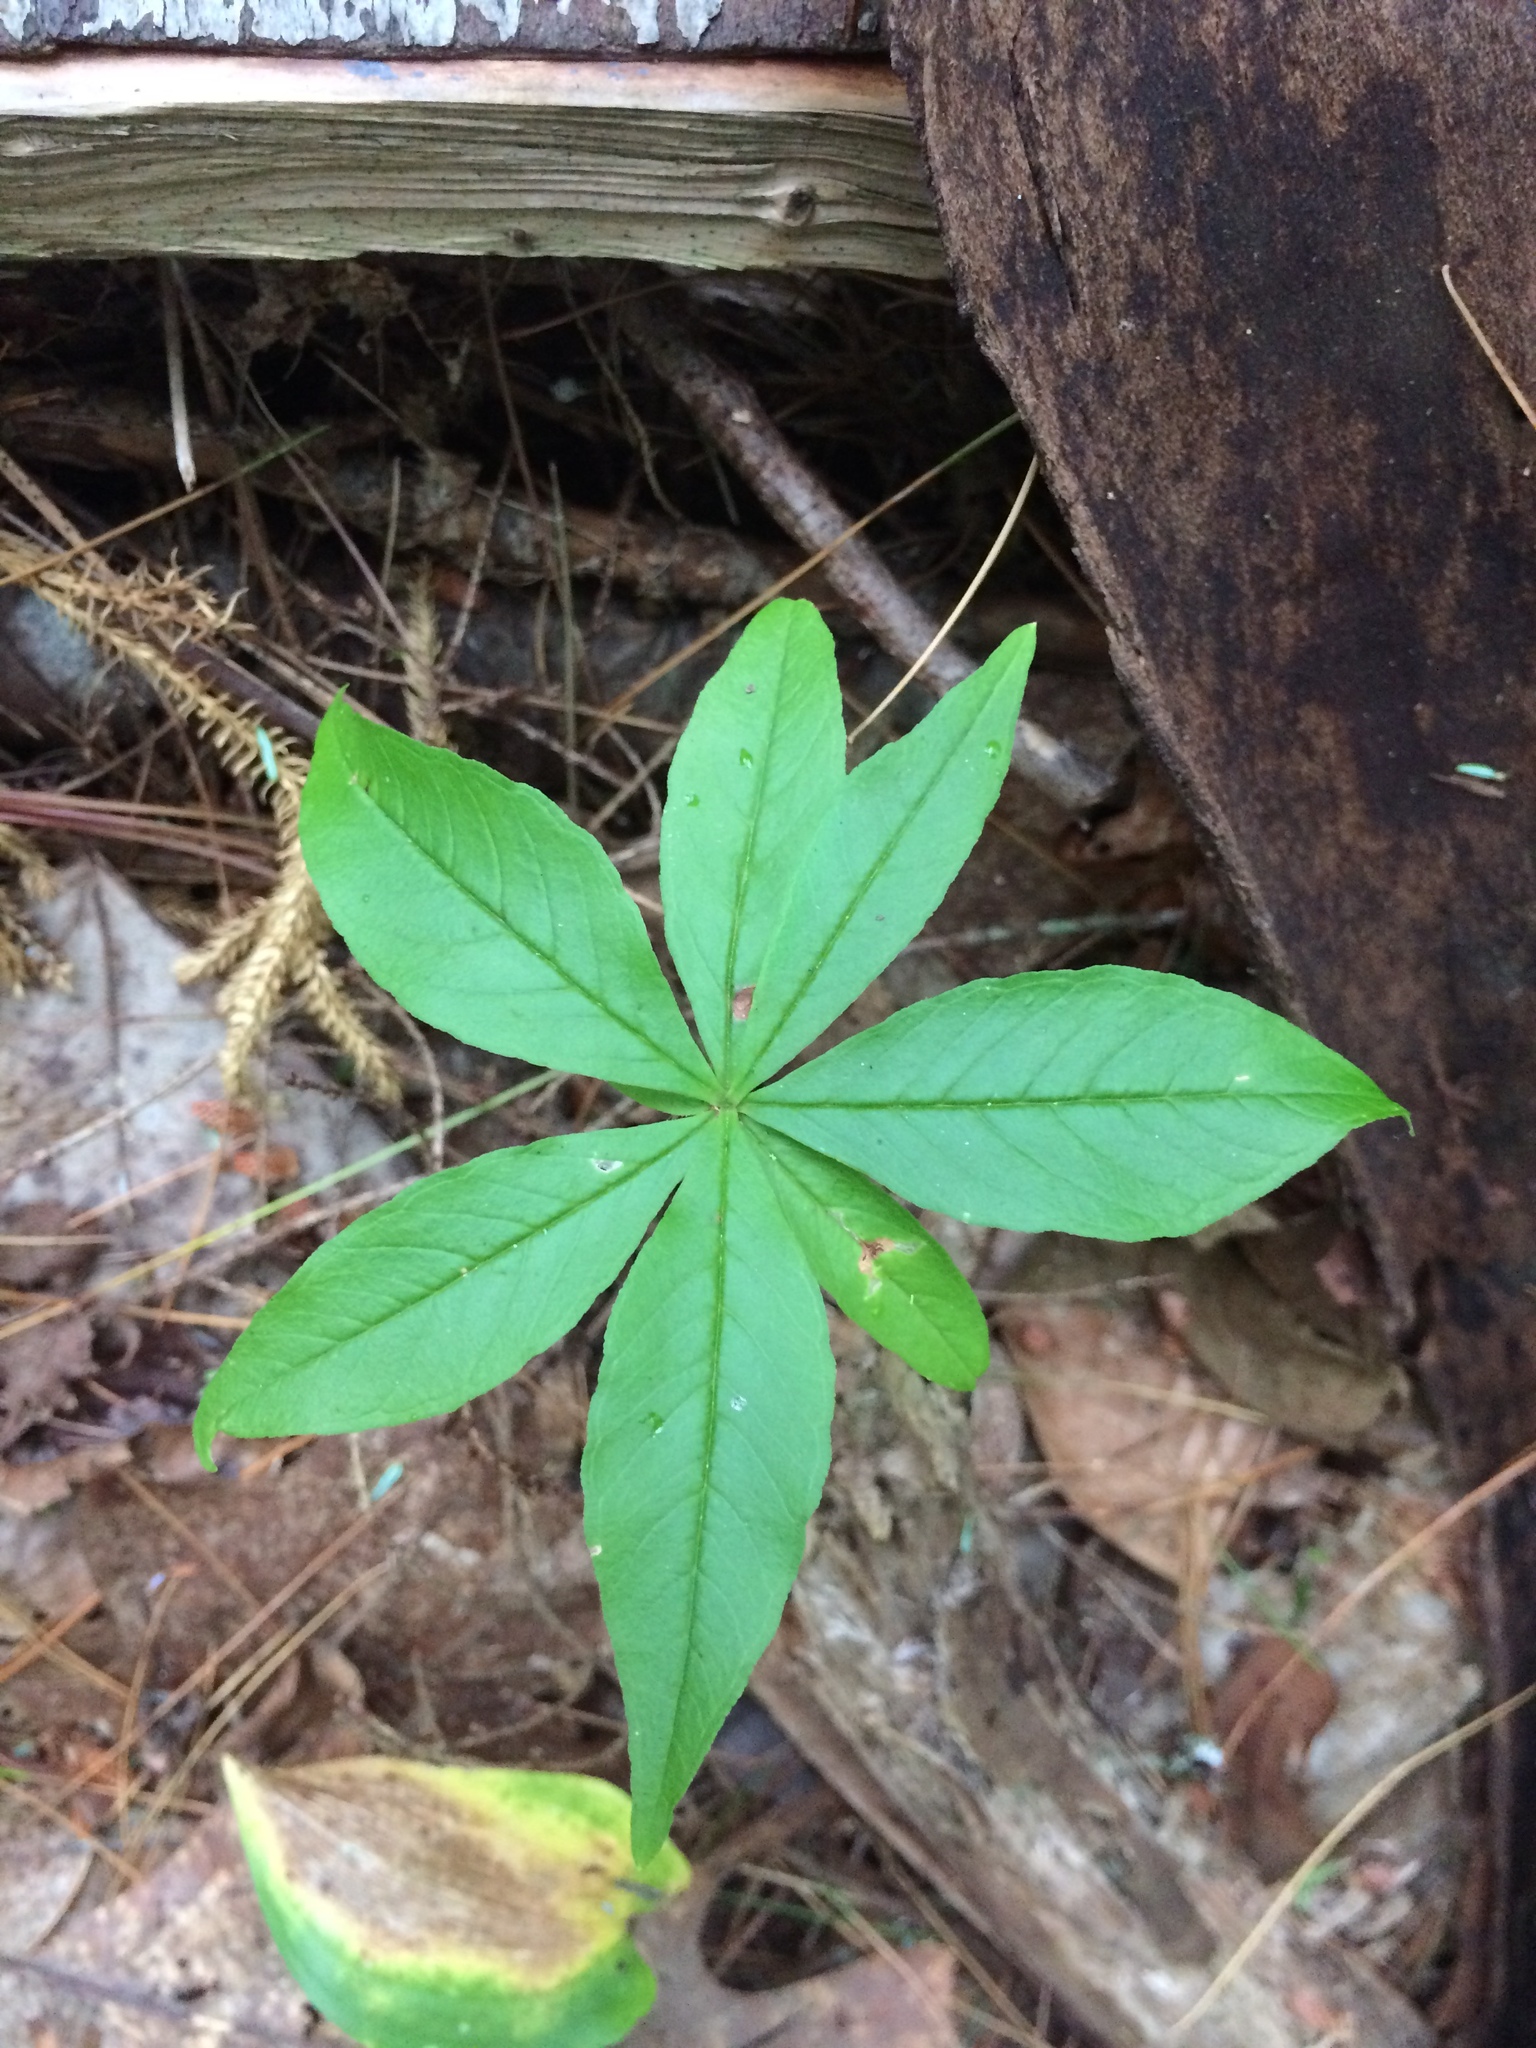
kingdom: Plantae
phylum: Tracheophyta
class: Magnoliopsida
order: Ericales
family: Primulaceae
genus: Lysimachia
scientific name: Lysimachia borealis
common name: American starflower
